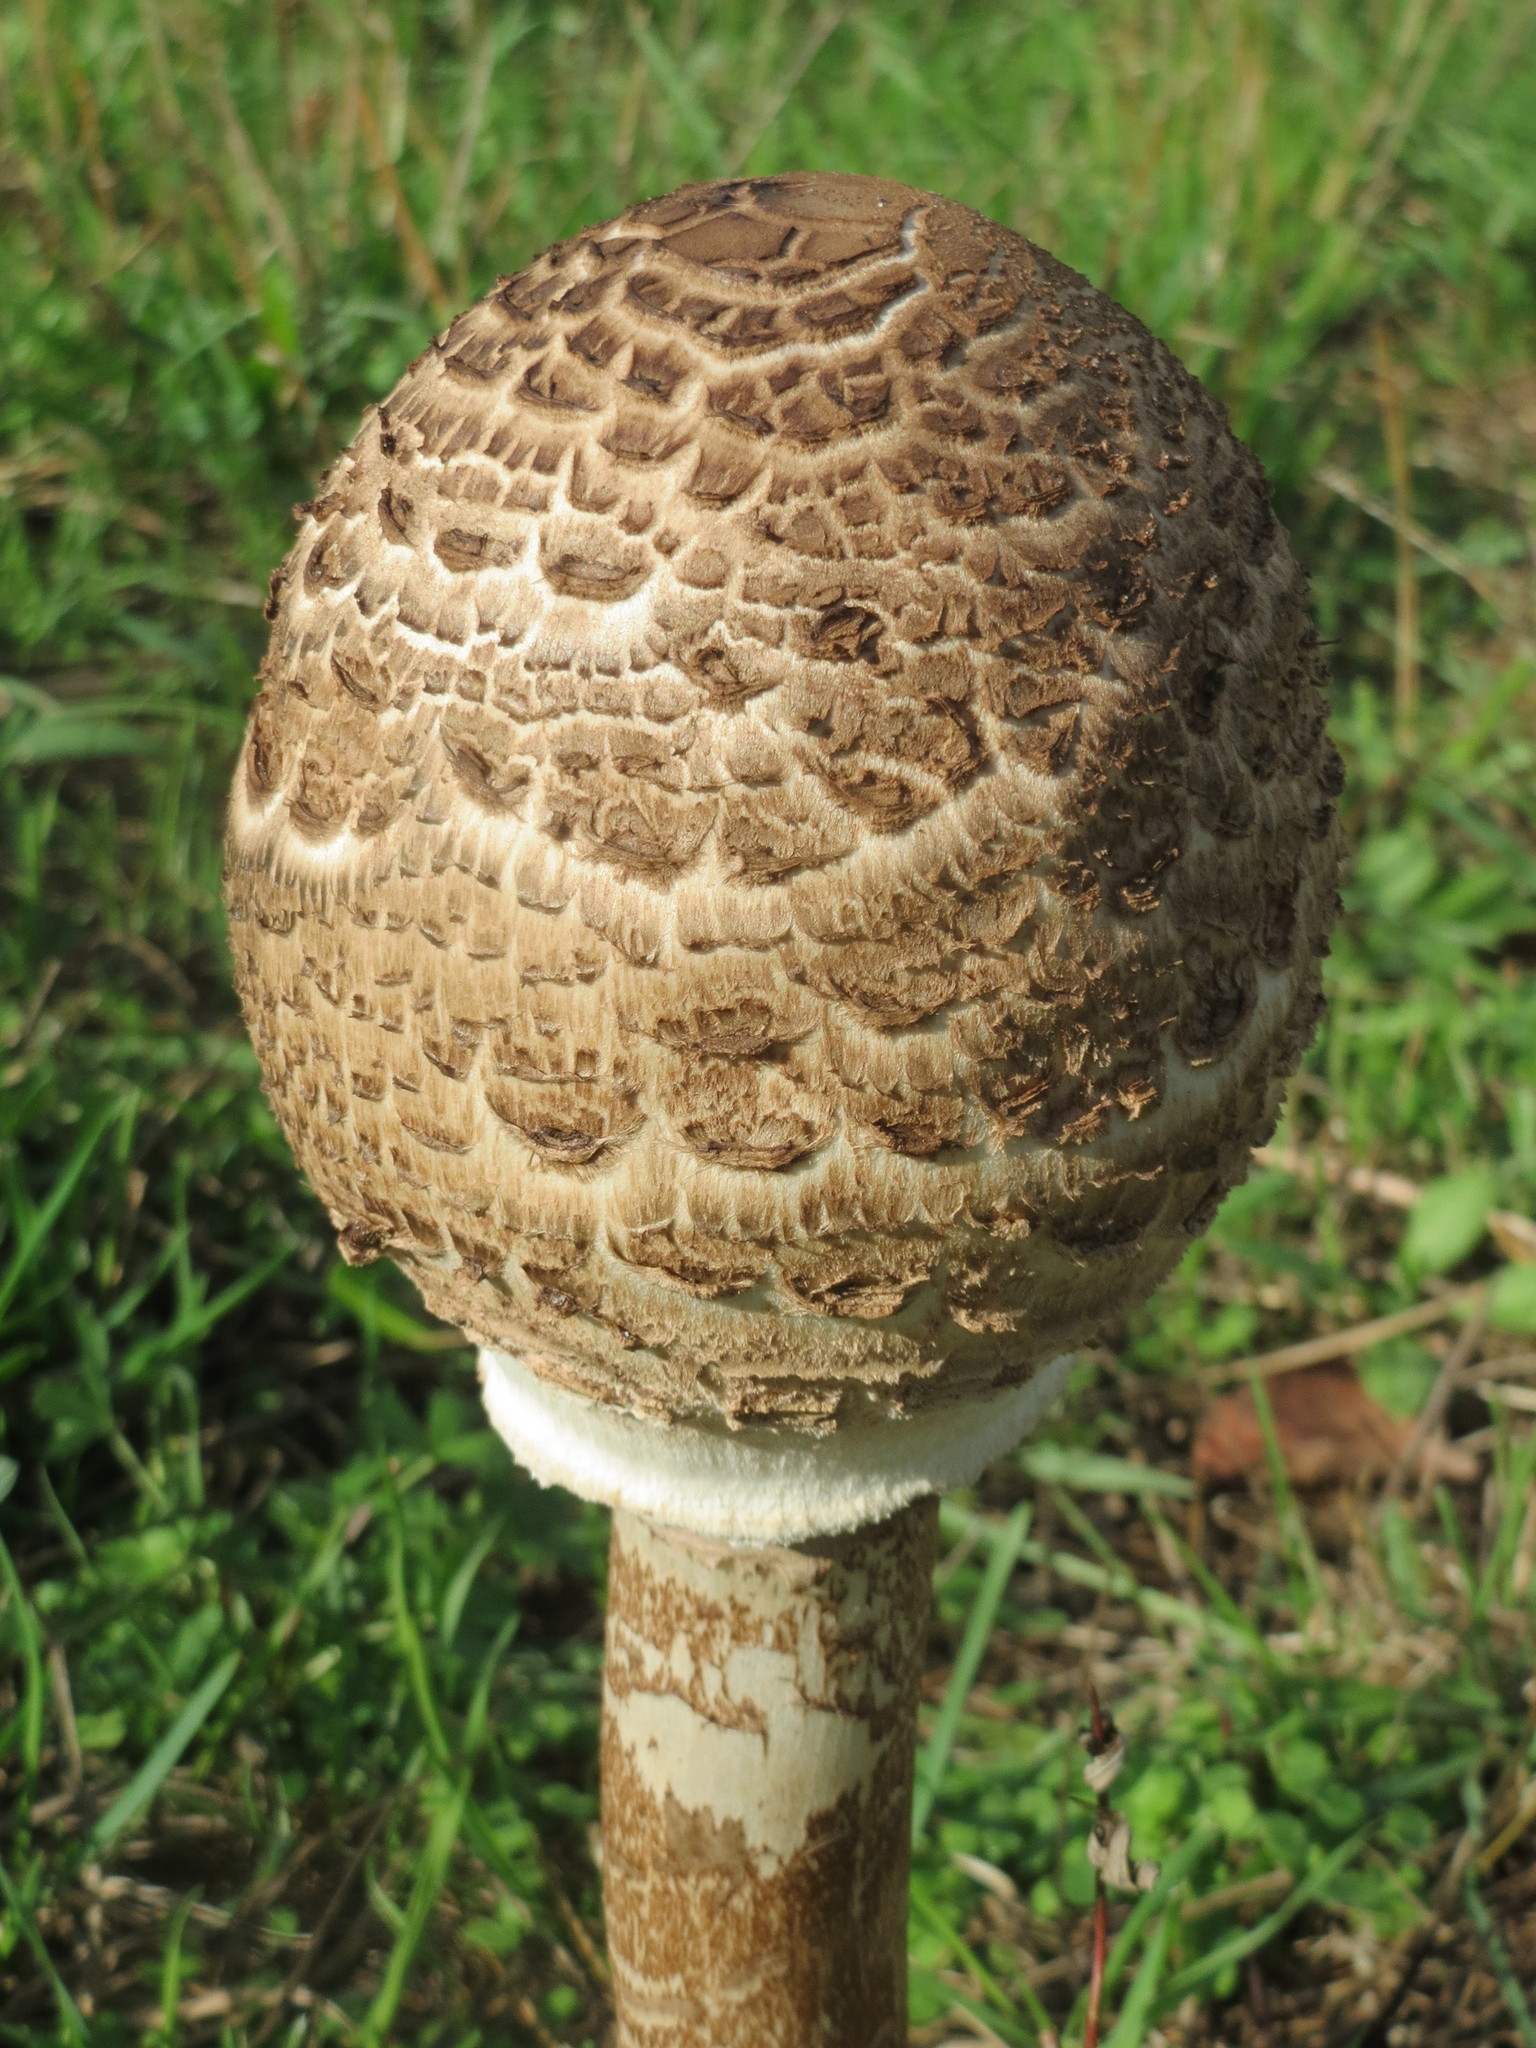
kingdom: Fungi
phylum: Basidiomycota
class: Agaricomycetes
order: Agaricales
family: Agaricaceae
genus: Macrolepiota
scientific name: Macrolepiota procera
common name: Parasol
